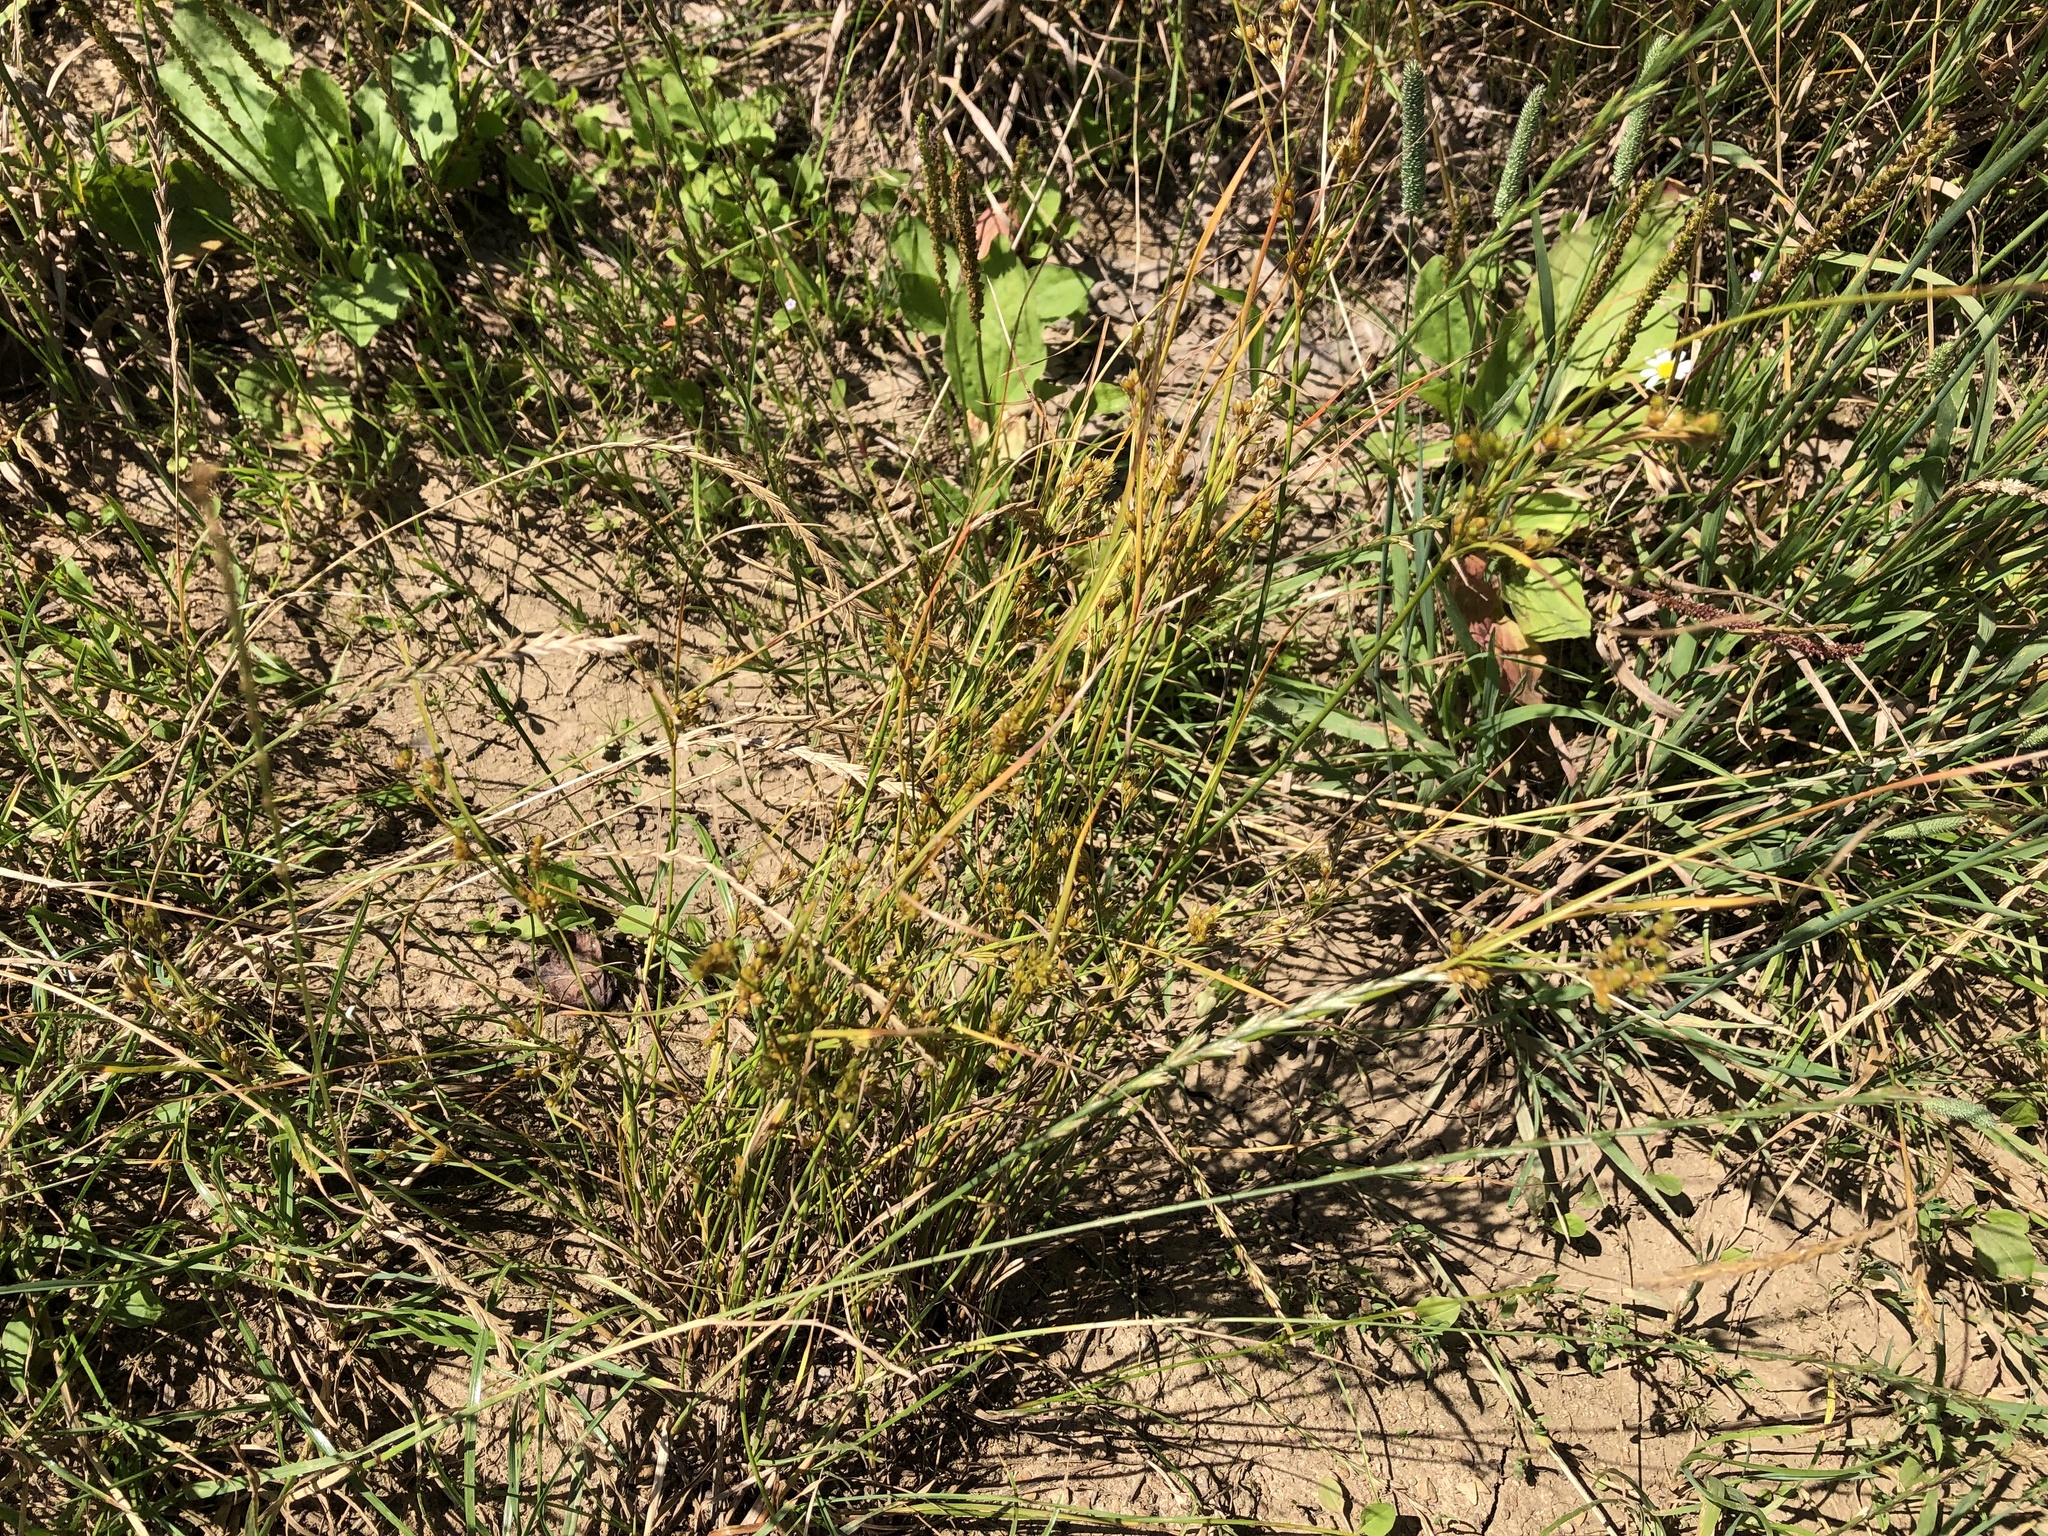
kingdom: Plantae
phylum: Tracheophyta
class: Liliopsida
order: Poales
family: Juncaceae
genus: Juncus
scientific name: Juncus tenuis
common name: Slender rush
